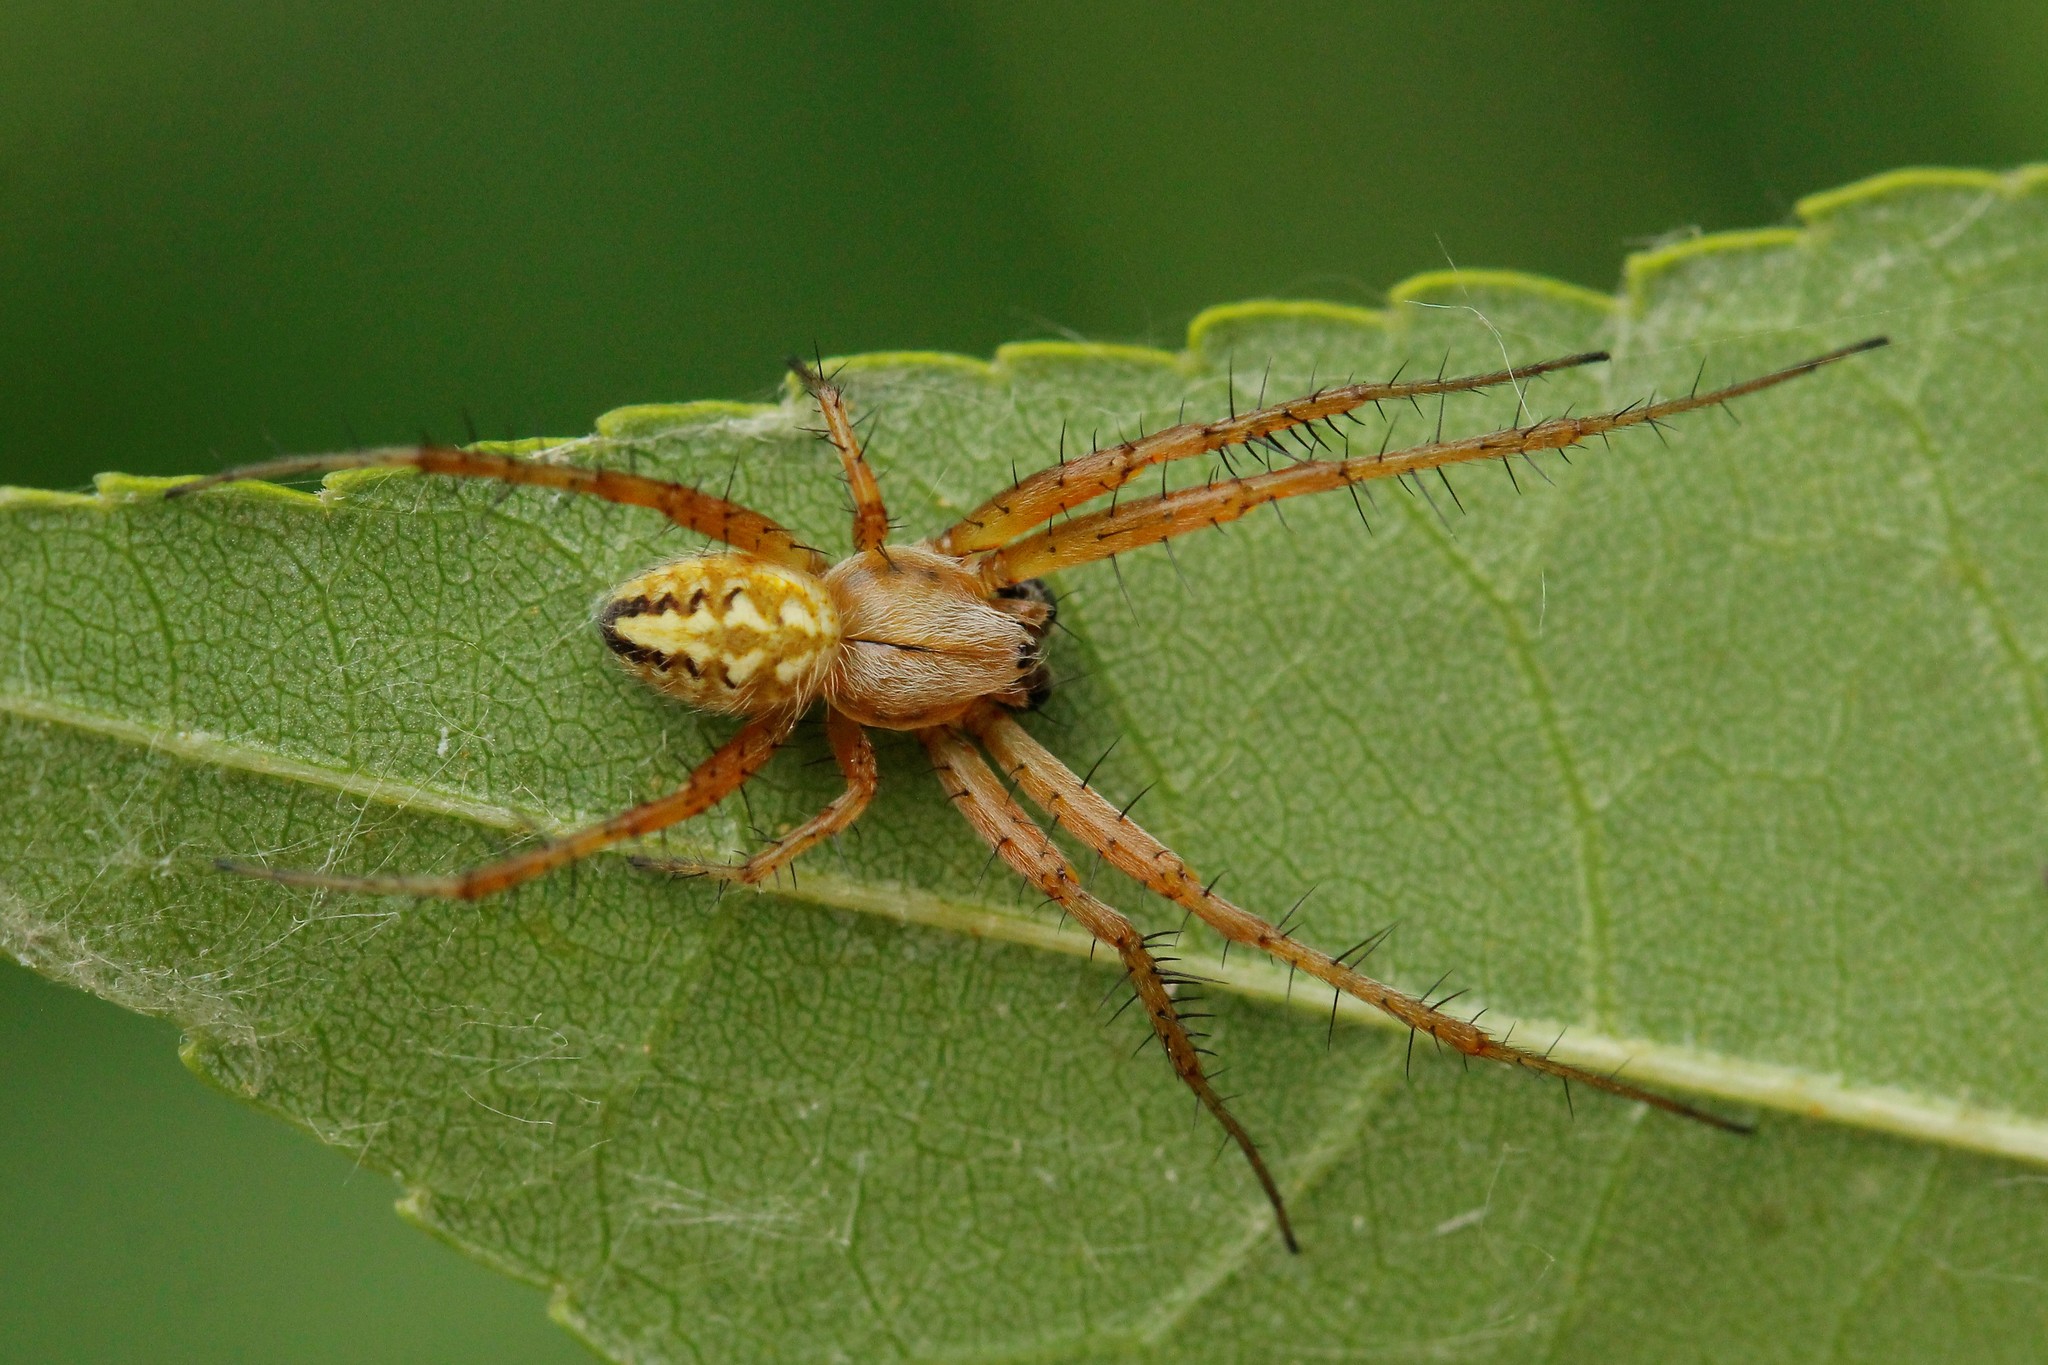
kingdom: Animalia
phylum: Arthropoda
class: Arachnida
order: Araneae
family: Araneidae
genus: Neoscona
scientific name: Neoscona adianta
